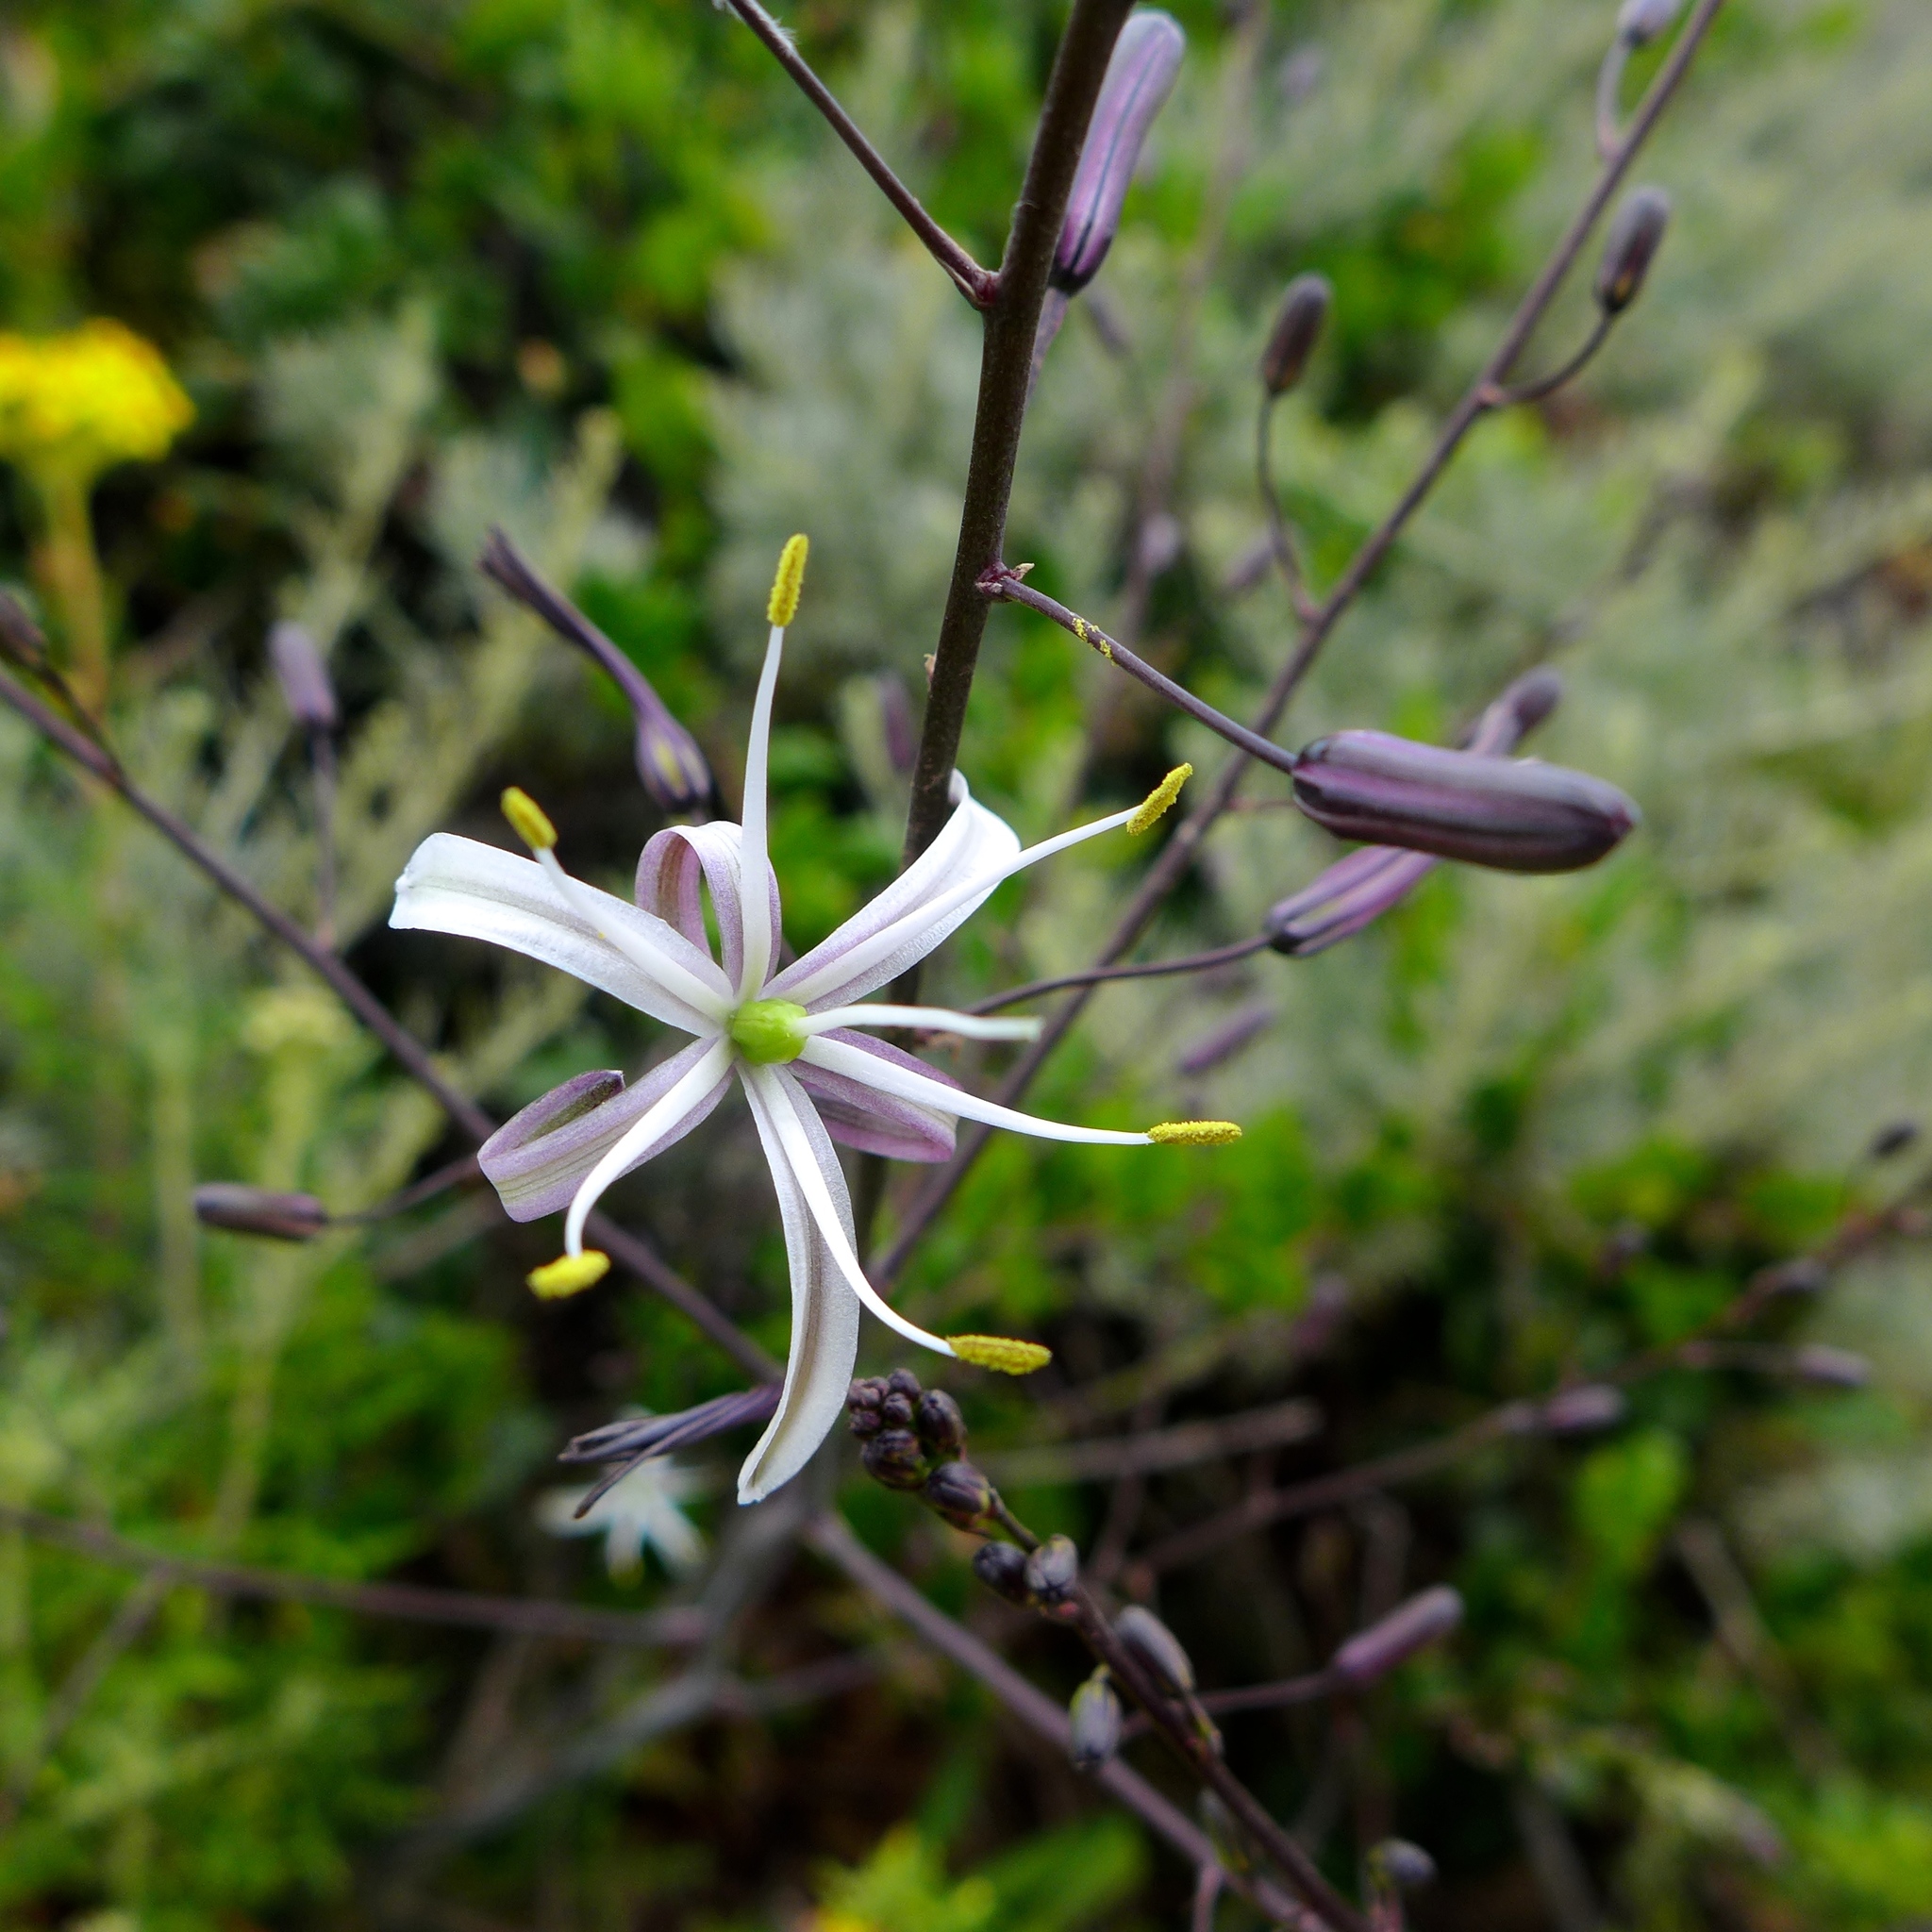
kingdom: Plantae
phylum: Tracheophyta
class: Liliopsida
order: Asparagales
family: Asparagaceae
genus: Chlorogalum
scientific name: Chlorogalum pomeridianum
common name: Amole
